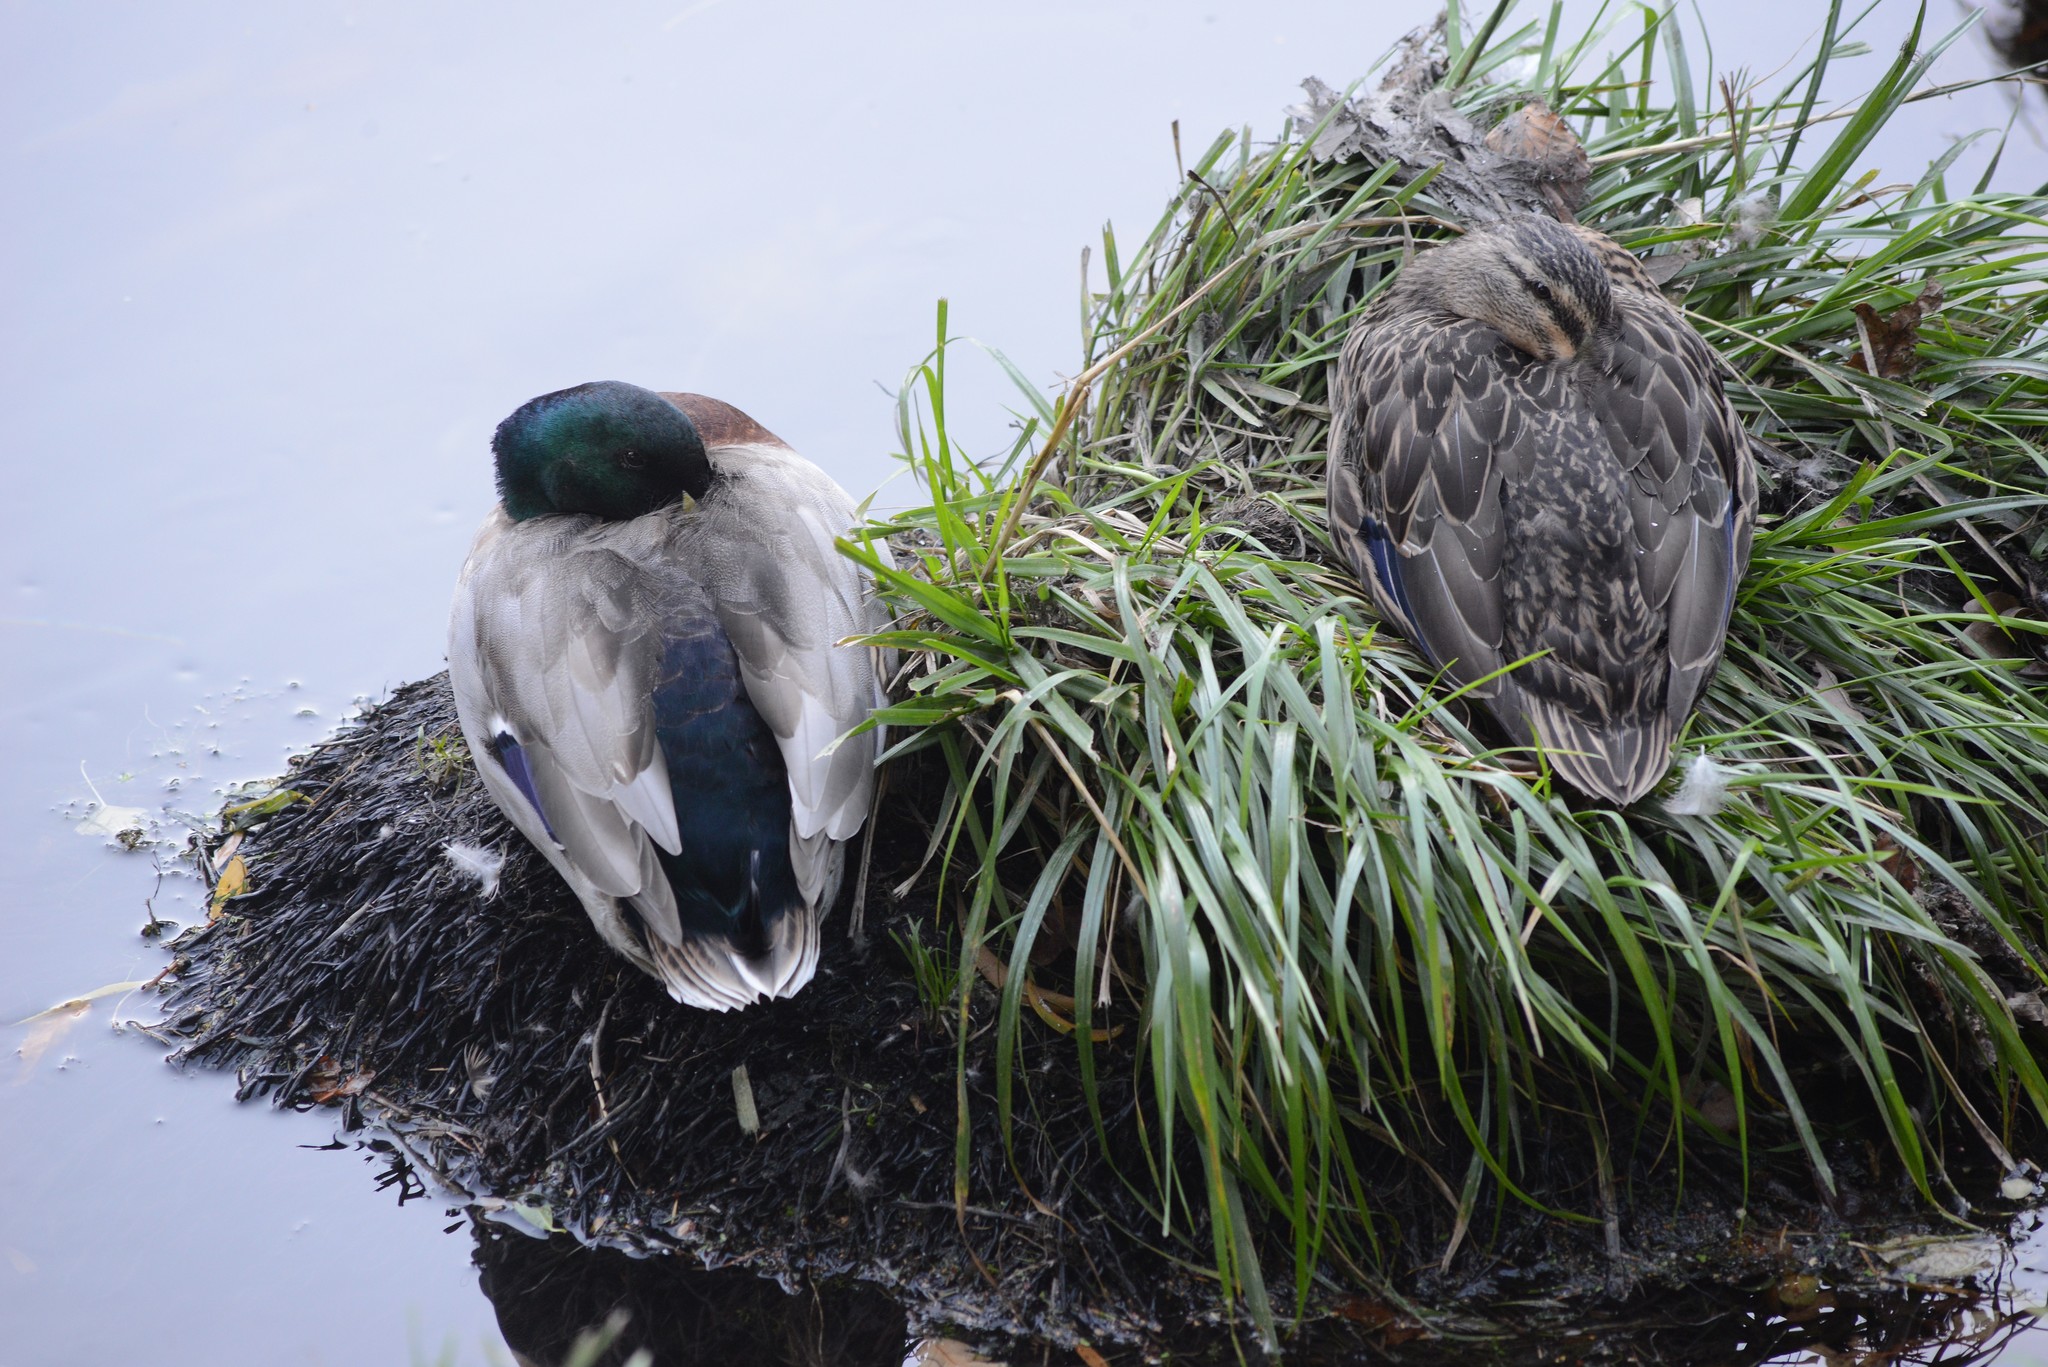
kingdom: Animalia
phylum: Chordata
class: Aves
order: Anseriformes
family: Anatidae
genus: Anas
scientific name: Anas platyrhynchos
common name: Mallard
